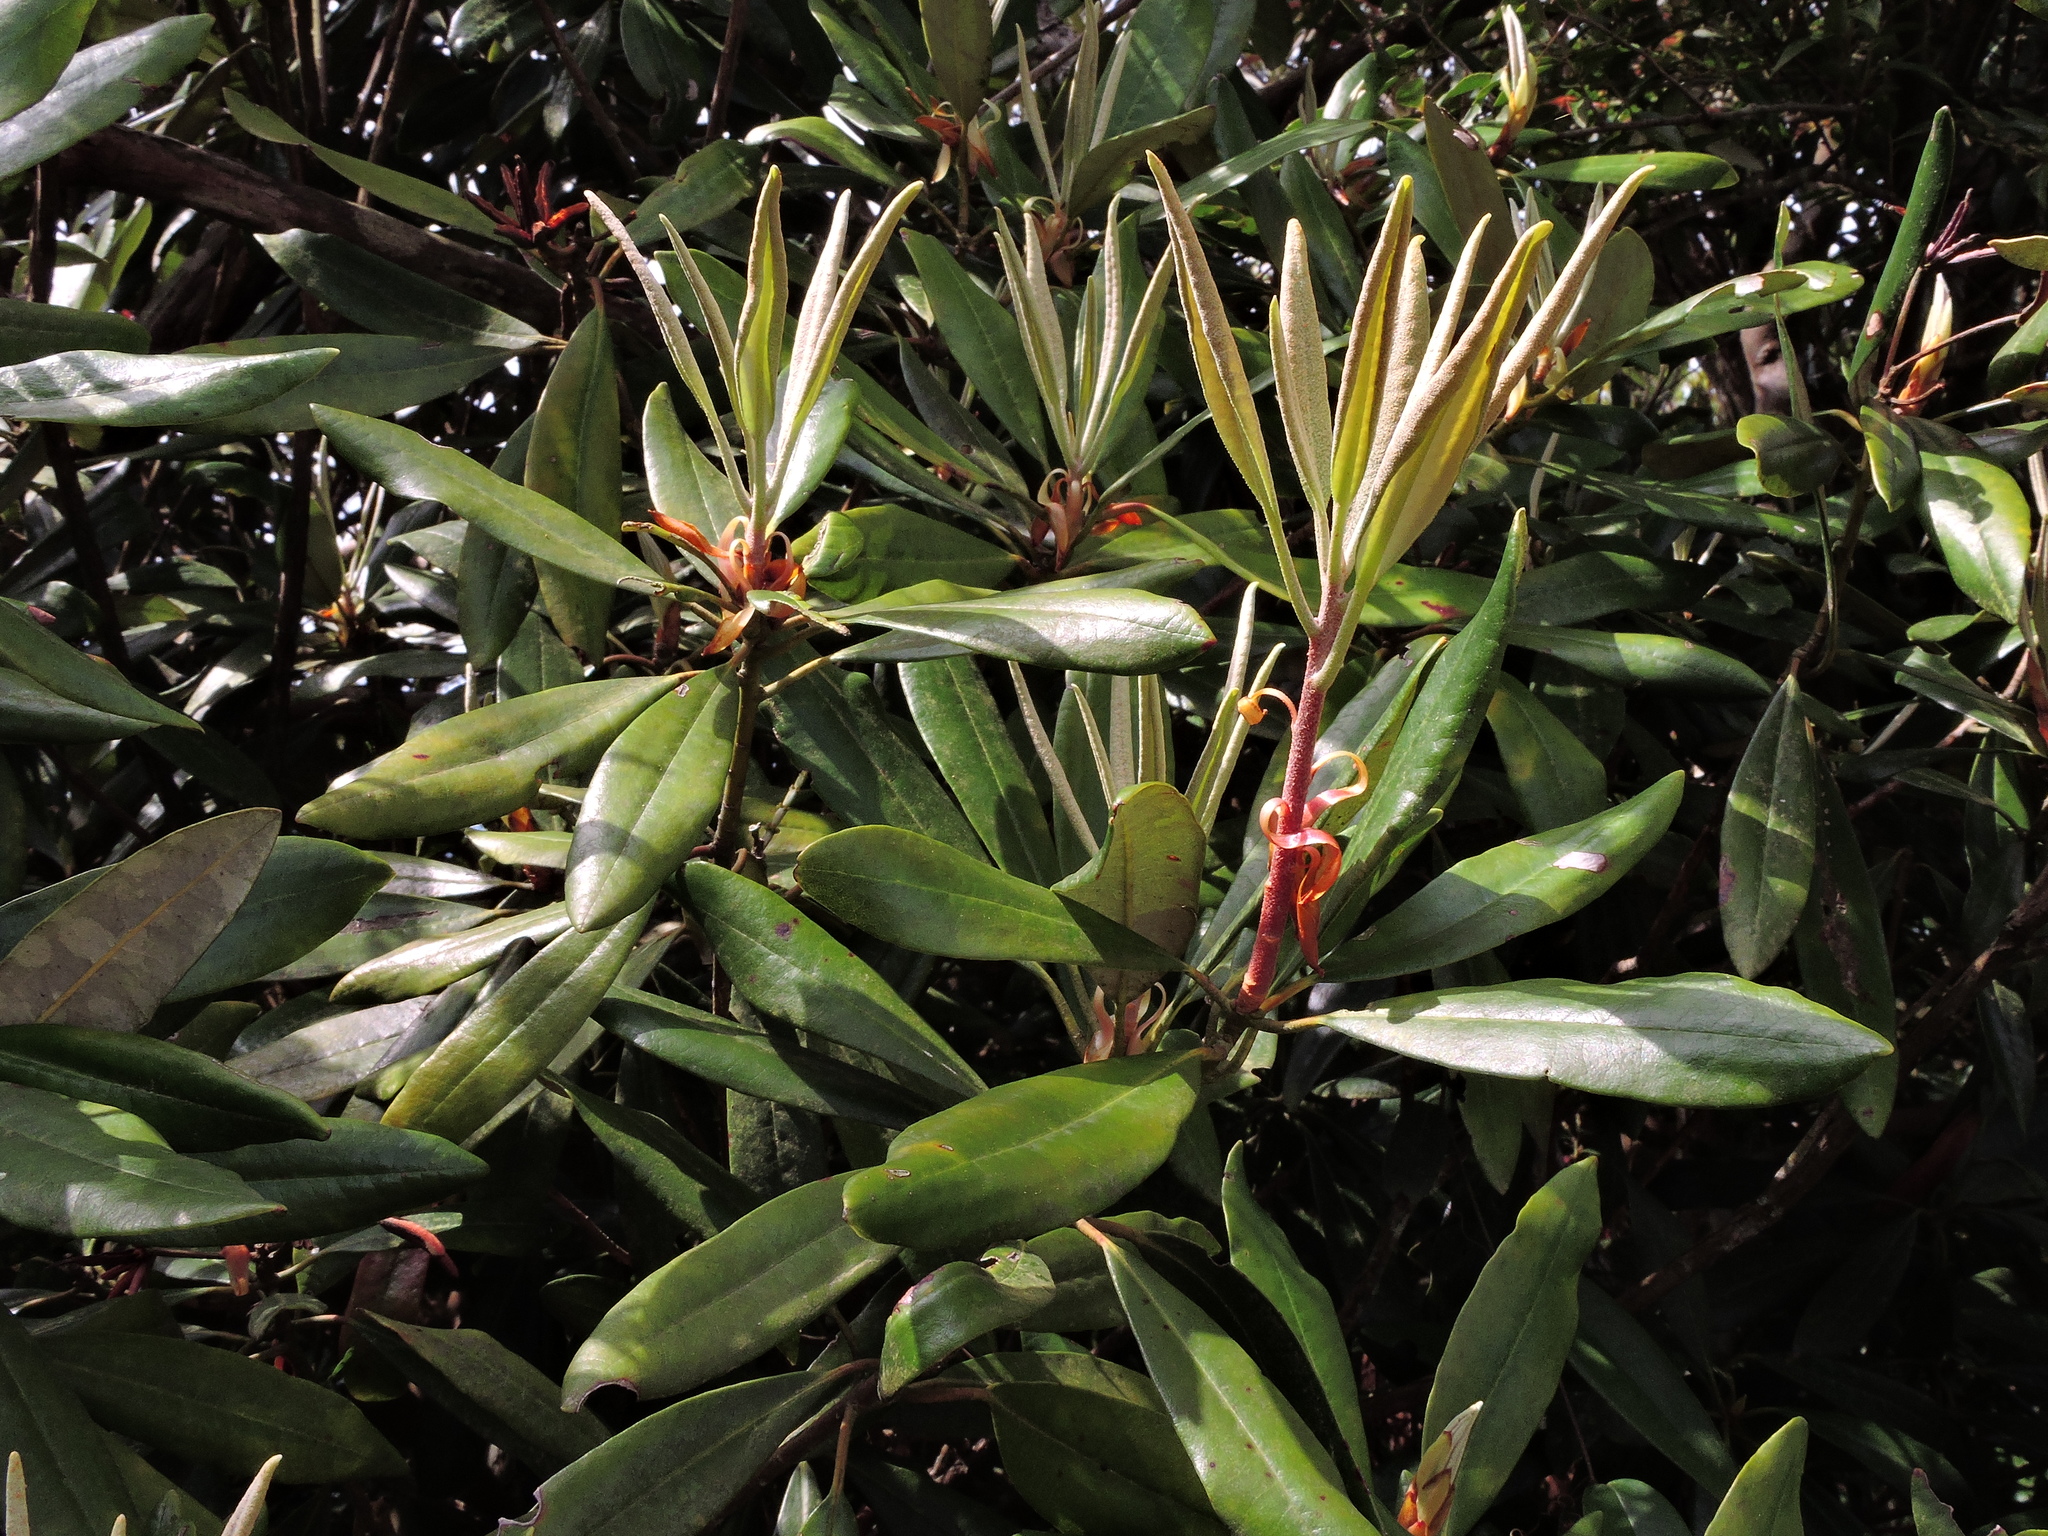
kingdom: Plantae
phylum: Tracheophyta
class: Magnoliopsida
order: Ericales
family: Ericaceae
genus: Rhododendron
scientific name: Rhododendron formosanum
